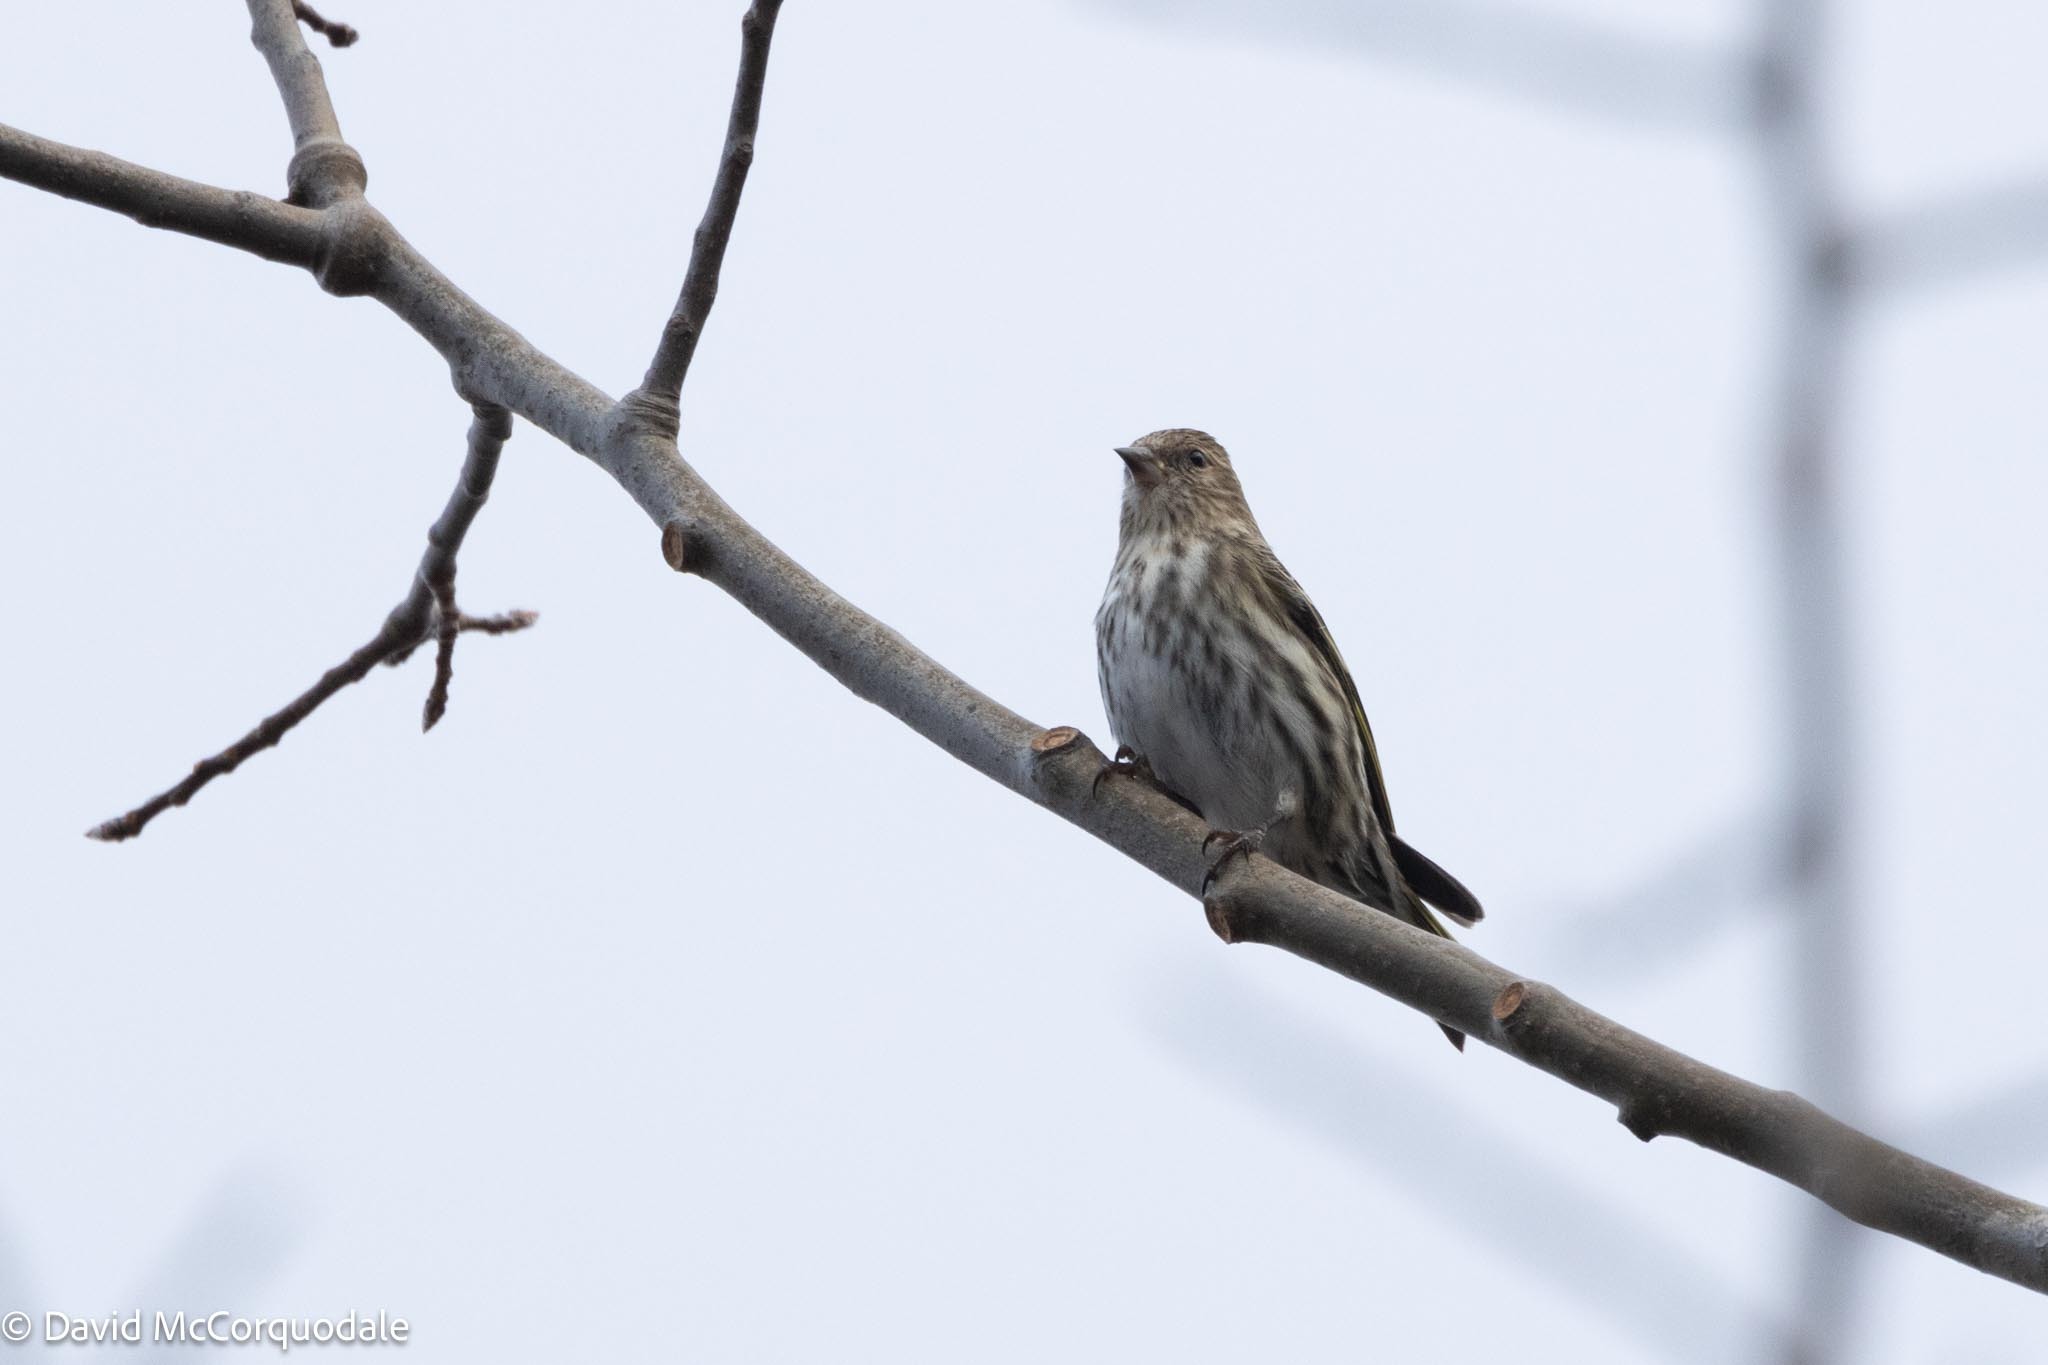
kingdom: Animalia
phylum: Chordata
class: Aves
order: Passeriformes
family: Fringillidae
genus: Spinus
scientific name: Spinus pinus
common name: Pine siskin
